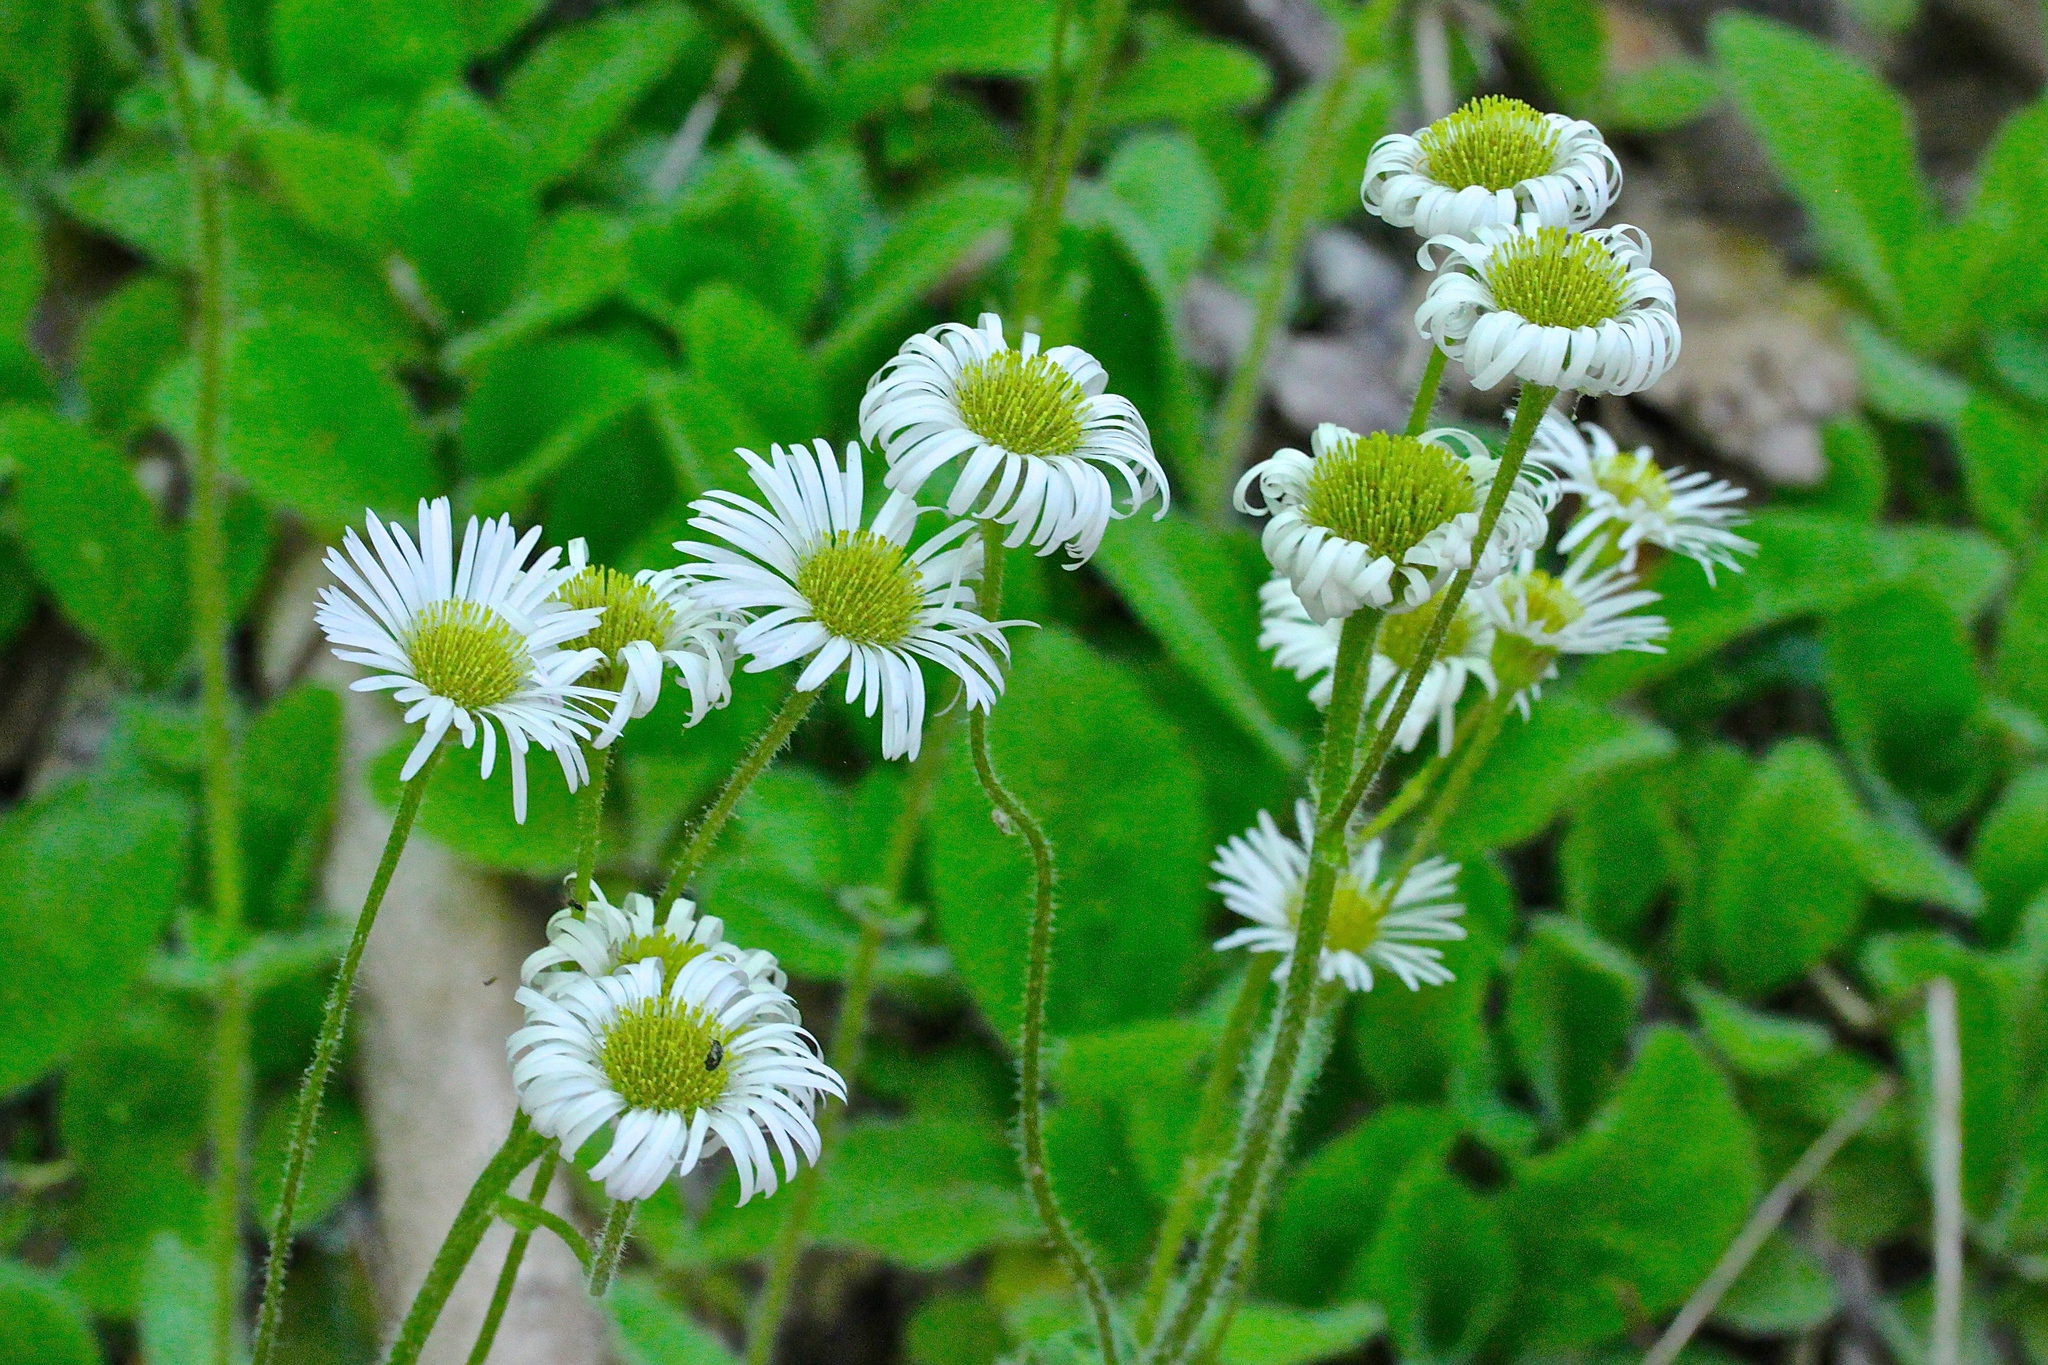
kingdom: Plantae
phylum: Tracheophyta
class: Magnoliopsida
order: Asterales
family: Asteraceae
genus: Erigeron
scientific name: Erigeron pulchellus
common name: Hairy fleabane
